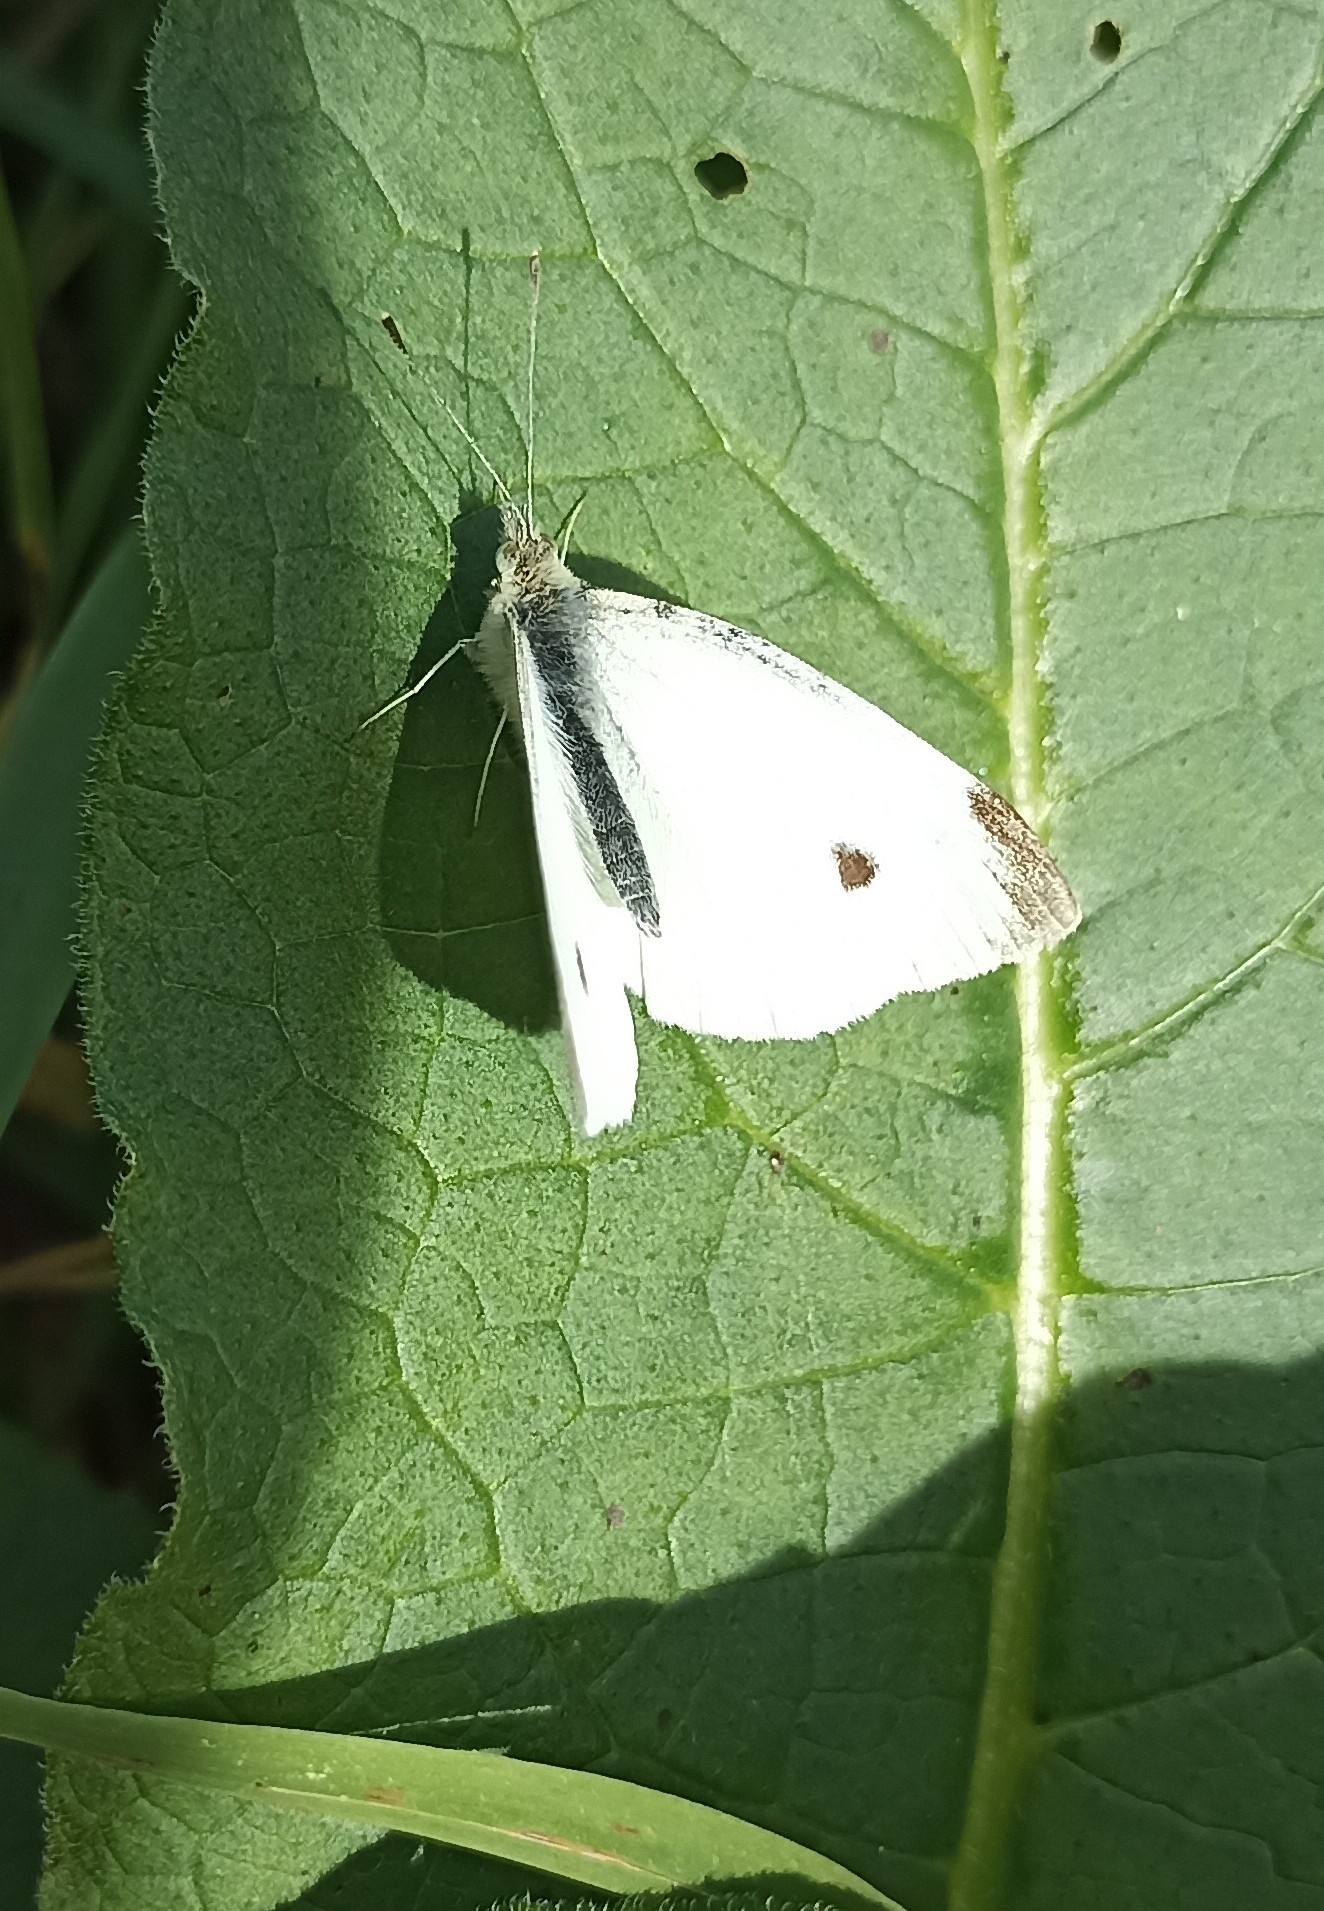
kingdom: Animalia
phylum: Arthropoda
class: Insecta
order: Lepidoptera
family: Pieridae
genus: Pieris
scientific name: Pieris rapae
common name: Small white
